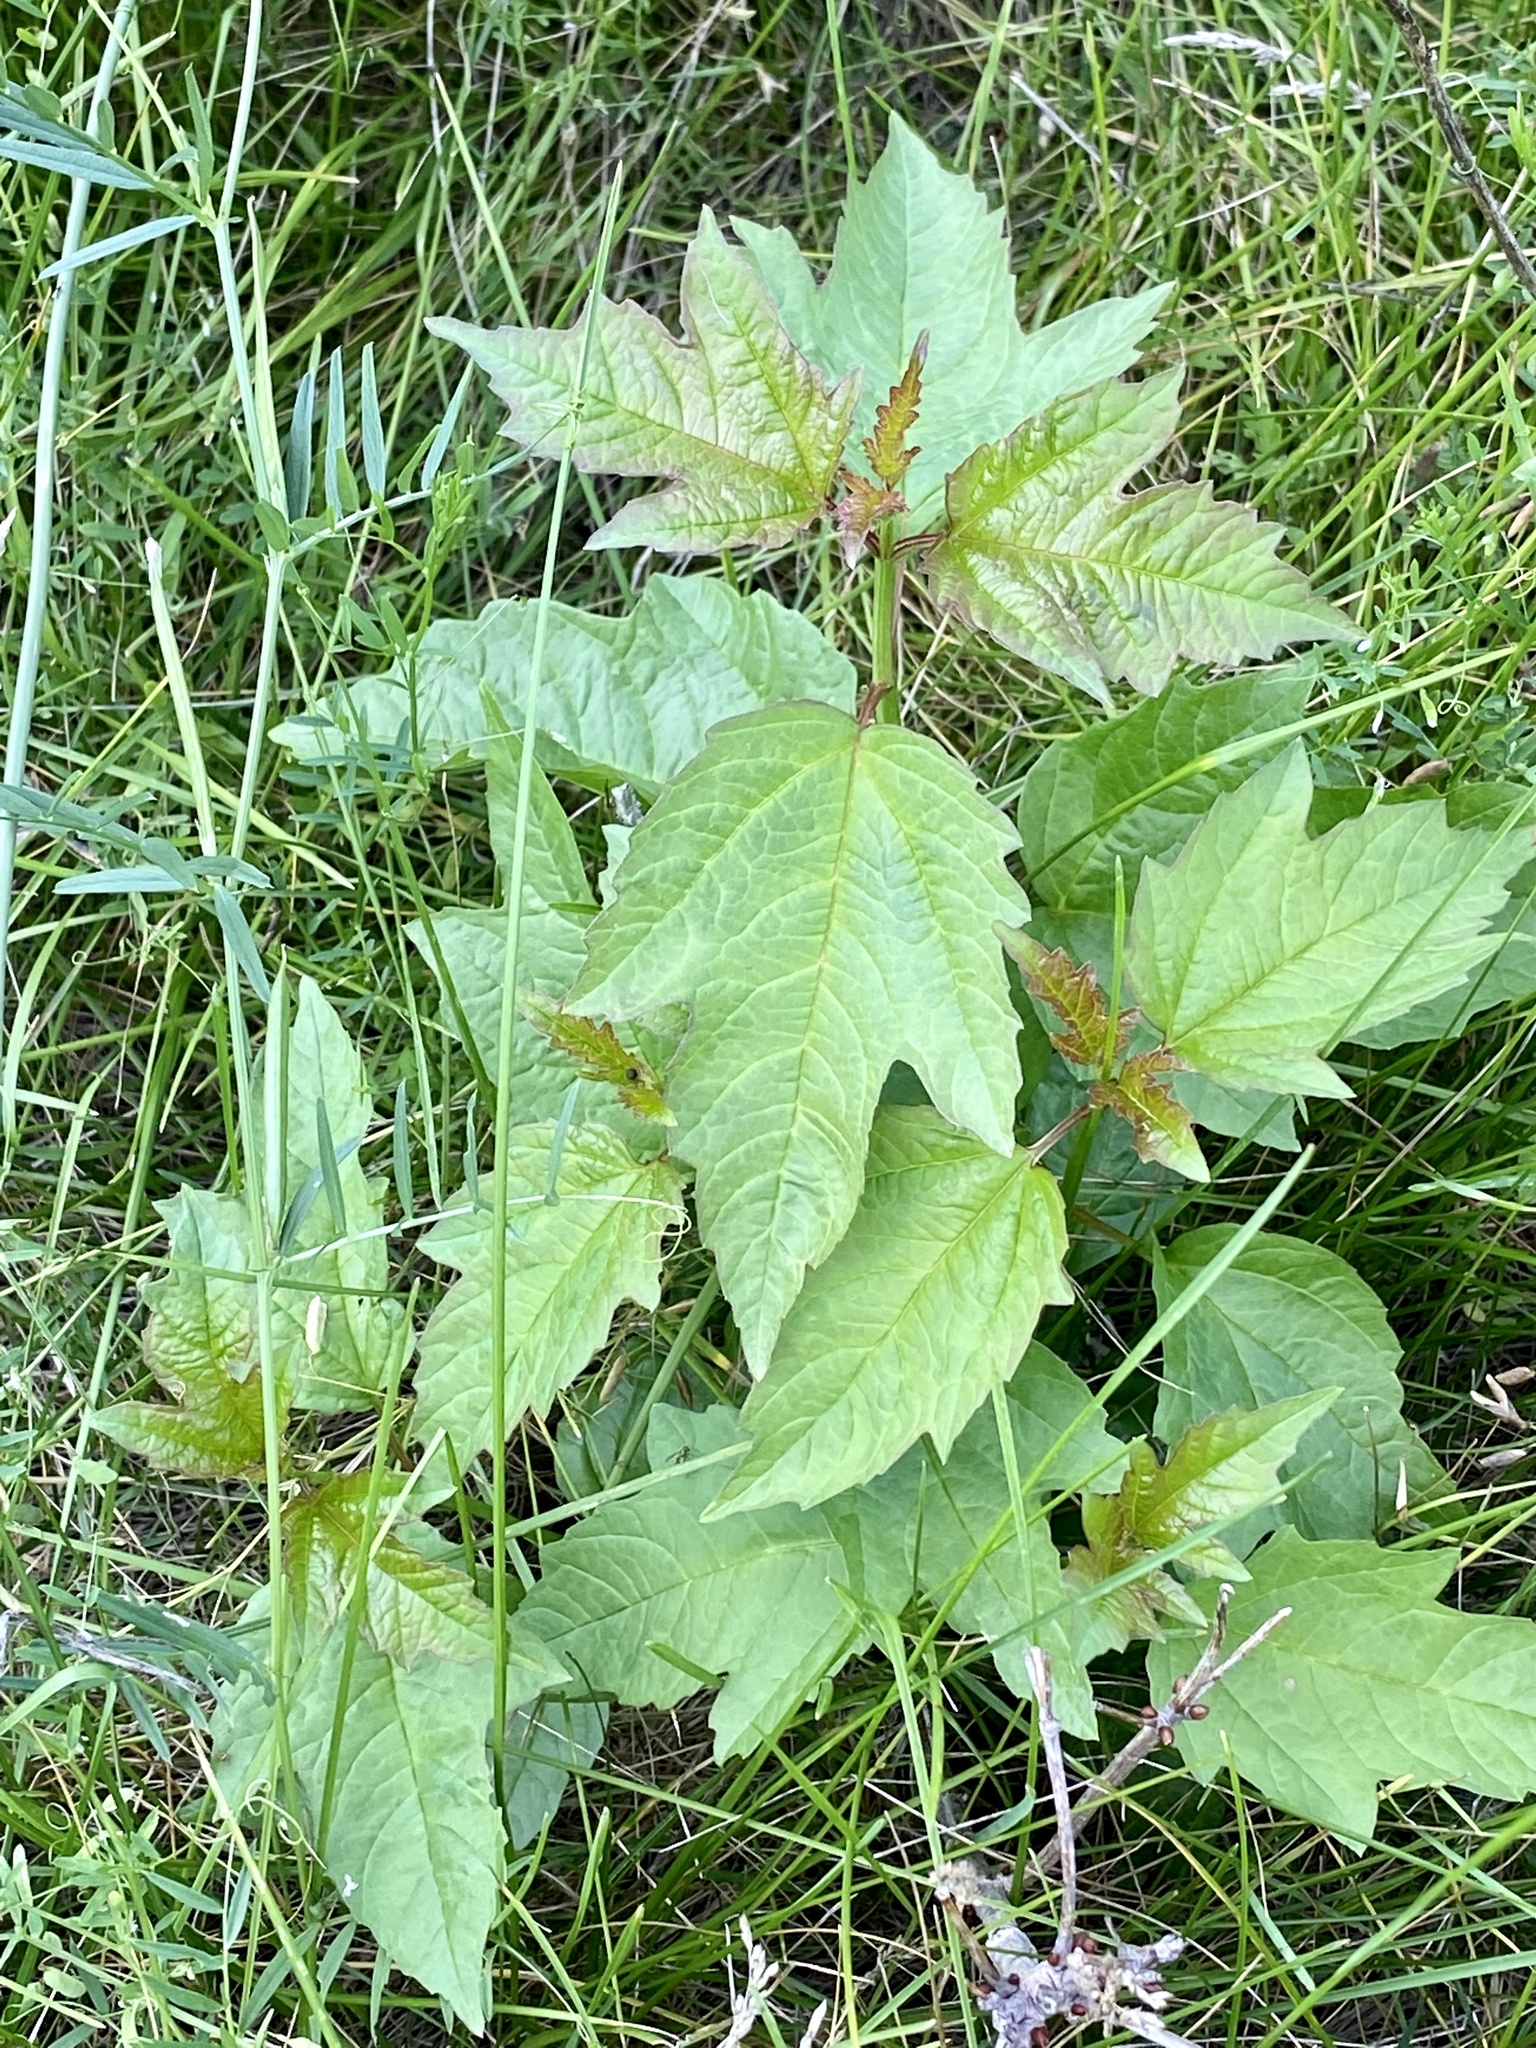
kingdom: Plantae
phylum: Tracheophyta
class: Magnoliopsida
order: Dipsacales
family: Viburnaceae
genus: Viburnum
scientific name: Viburnum opulus
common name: Guelder-rose
